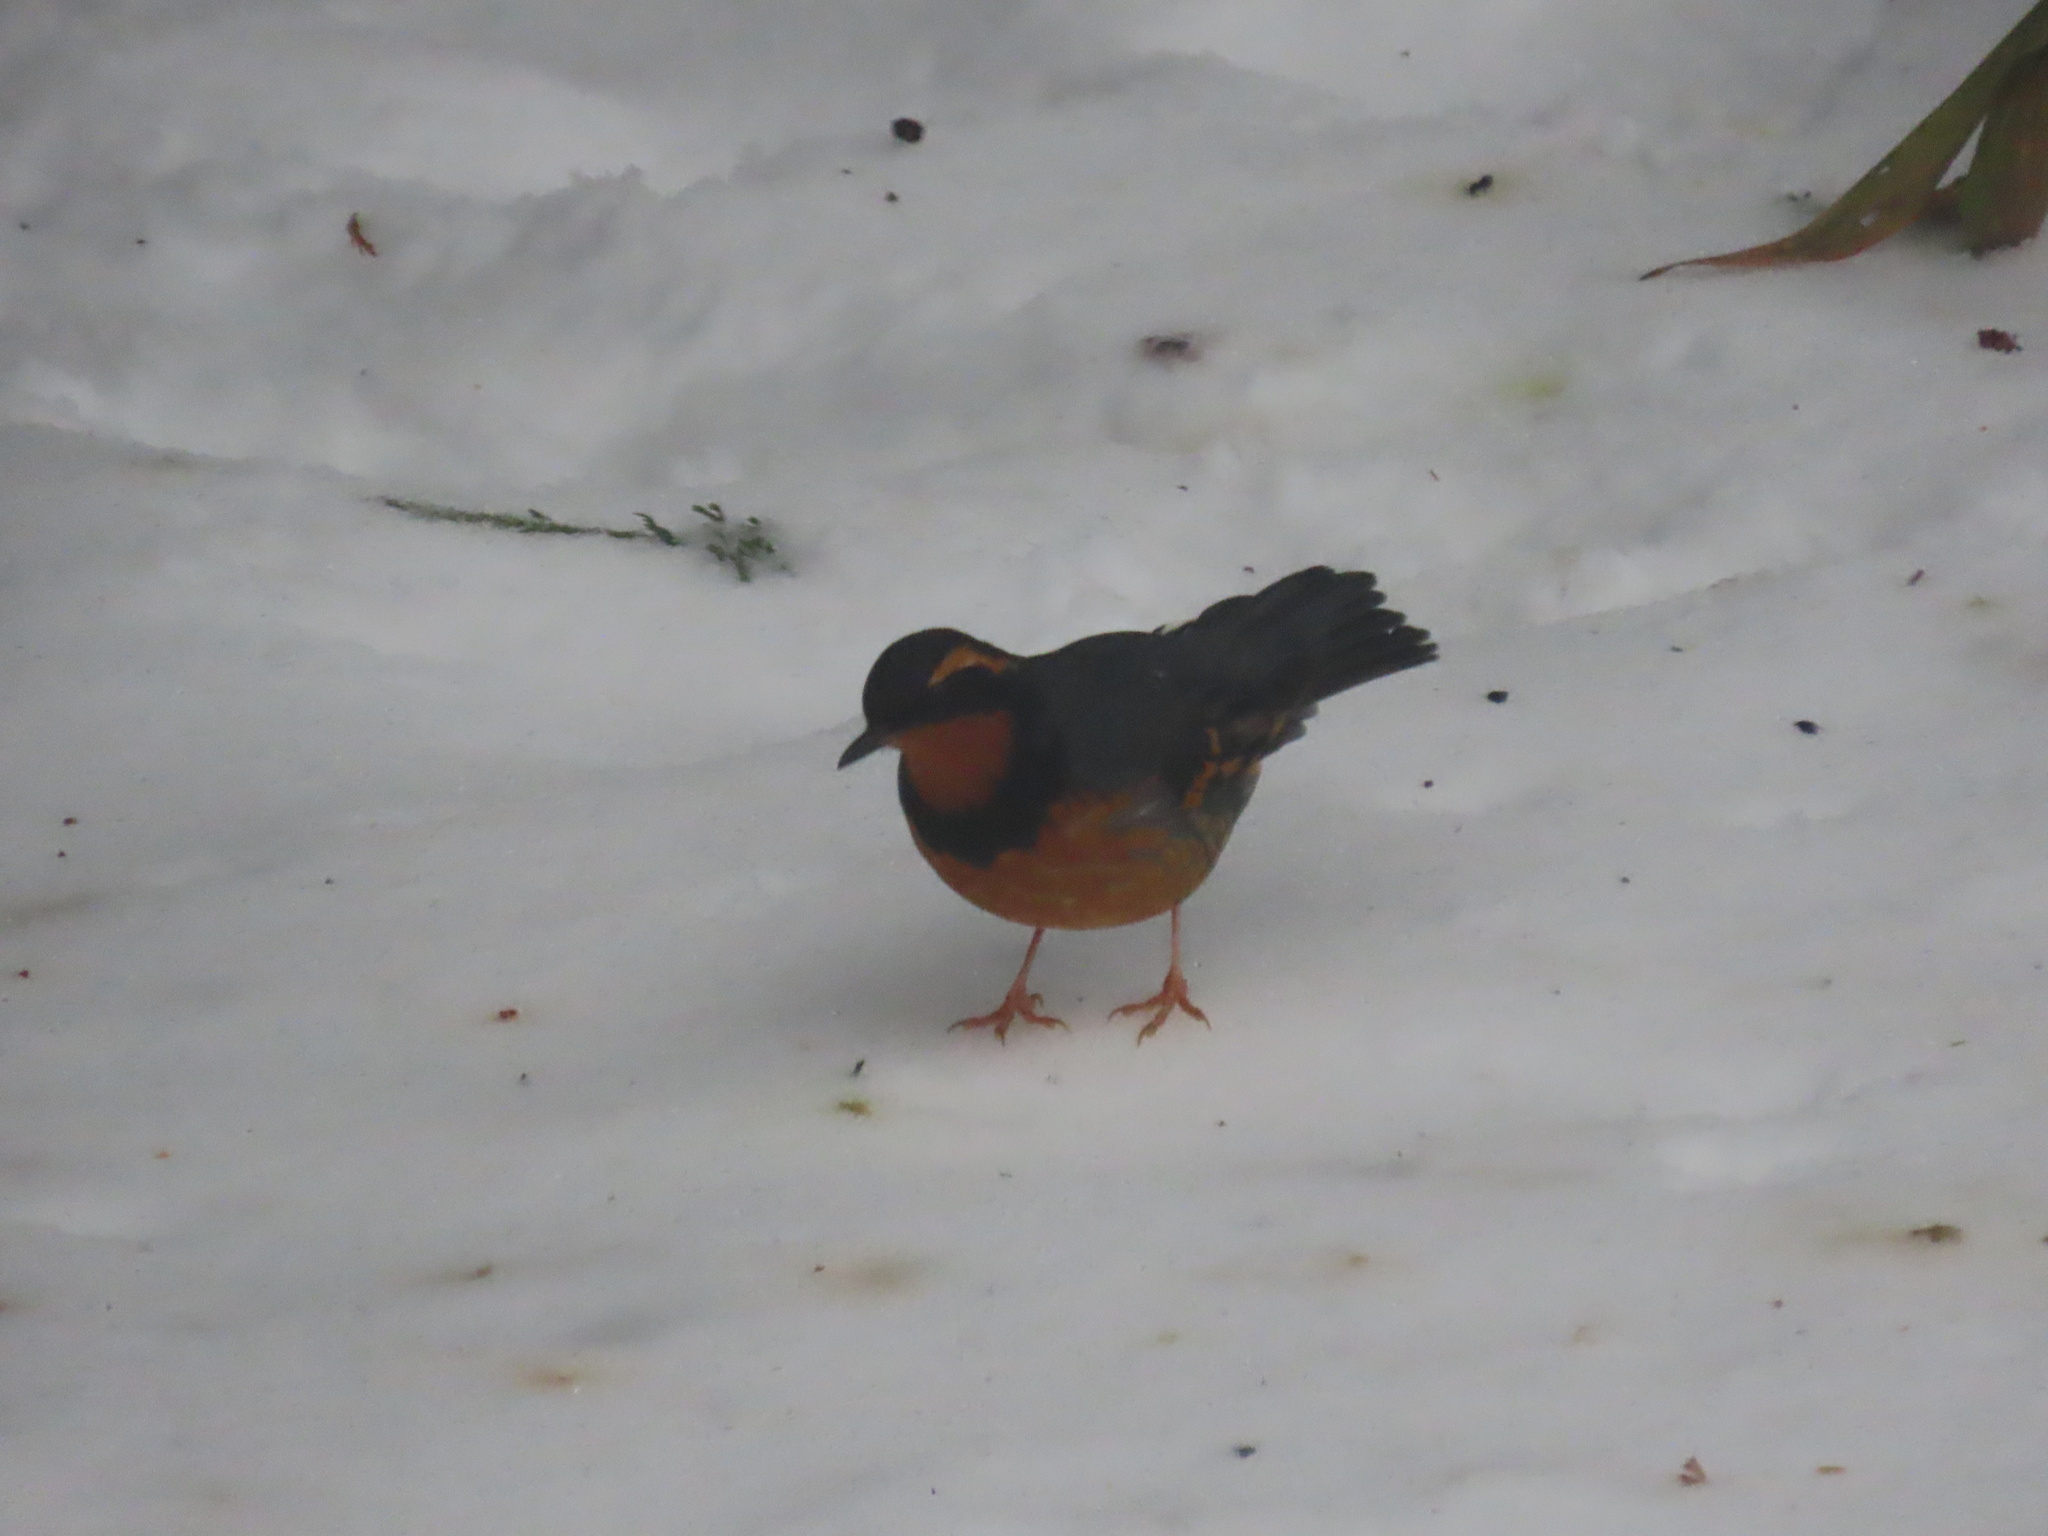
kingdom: Animalia
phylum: Chordata
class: Aves
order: Passeriformes
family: Turdidae
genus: Ixoreus
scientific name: Ixoreus naevius
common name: Varied thrush
